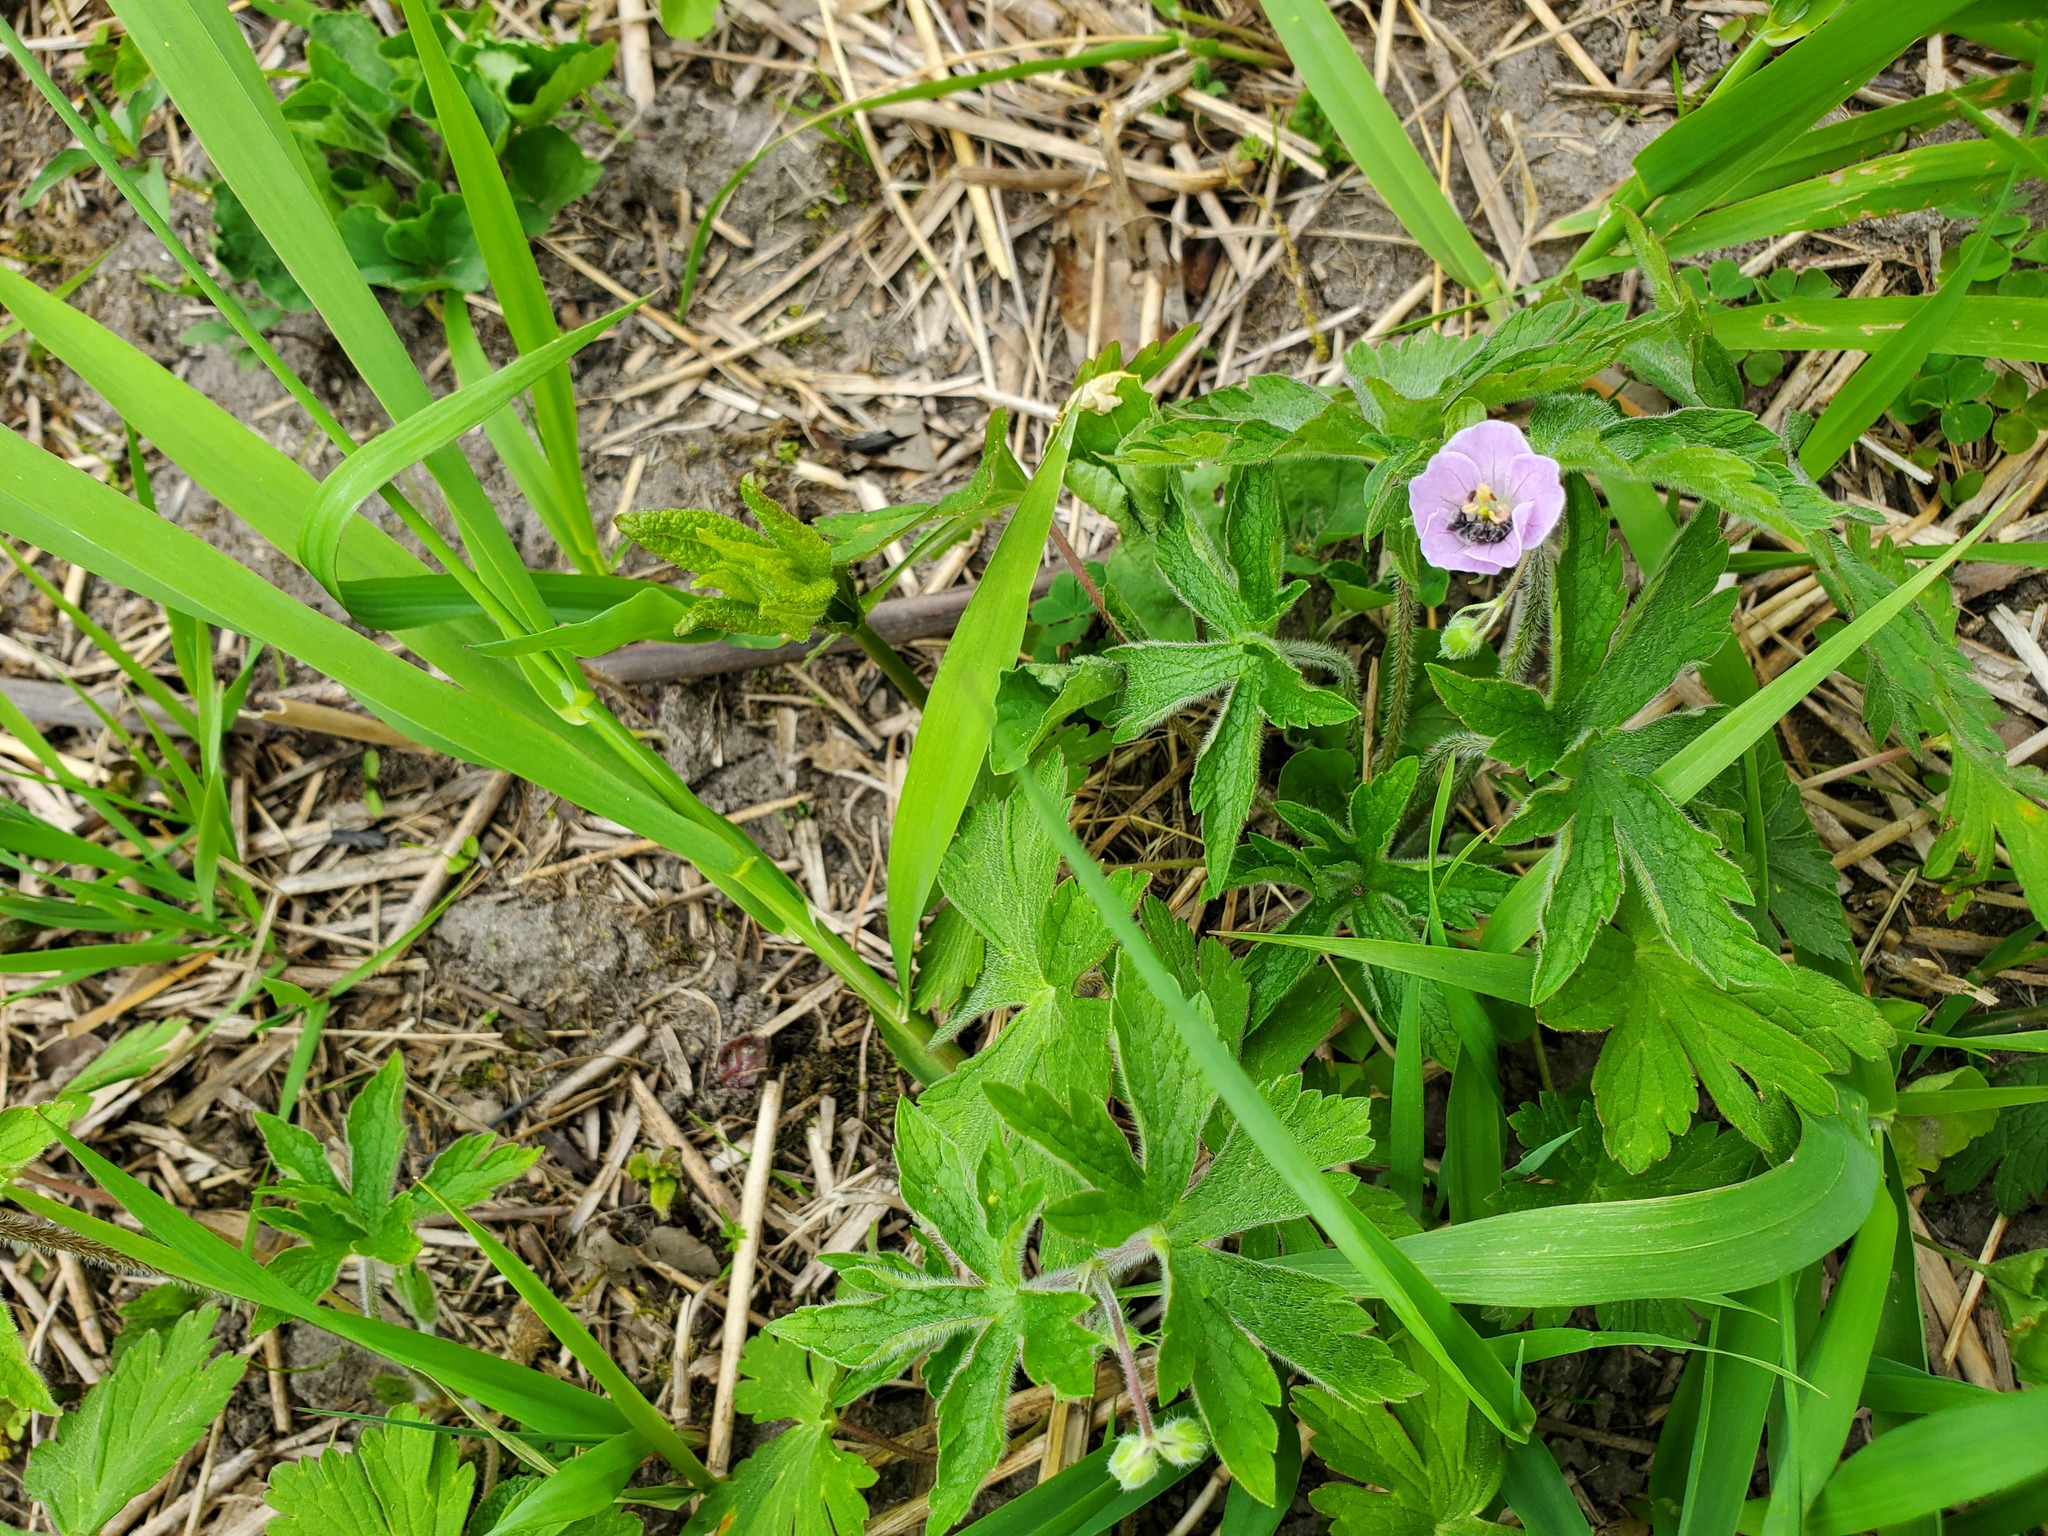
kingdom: Plantae
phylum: Tracheophyta
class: Magnoliopsida
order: Geraniales
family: Geraniaceae
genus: Geranium
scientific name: Geranium maculatum
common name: Spotted geranium
